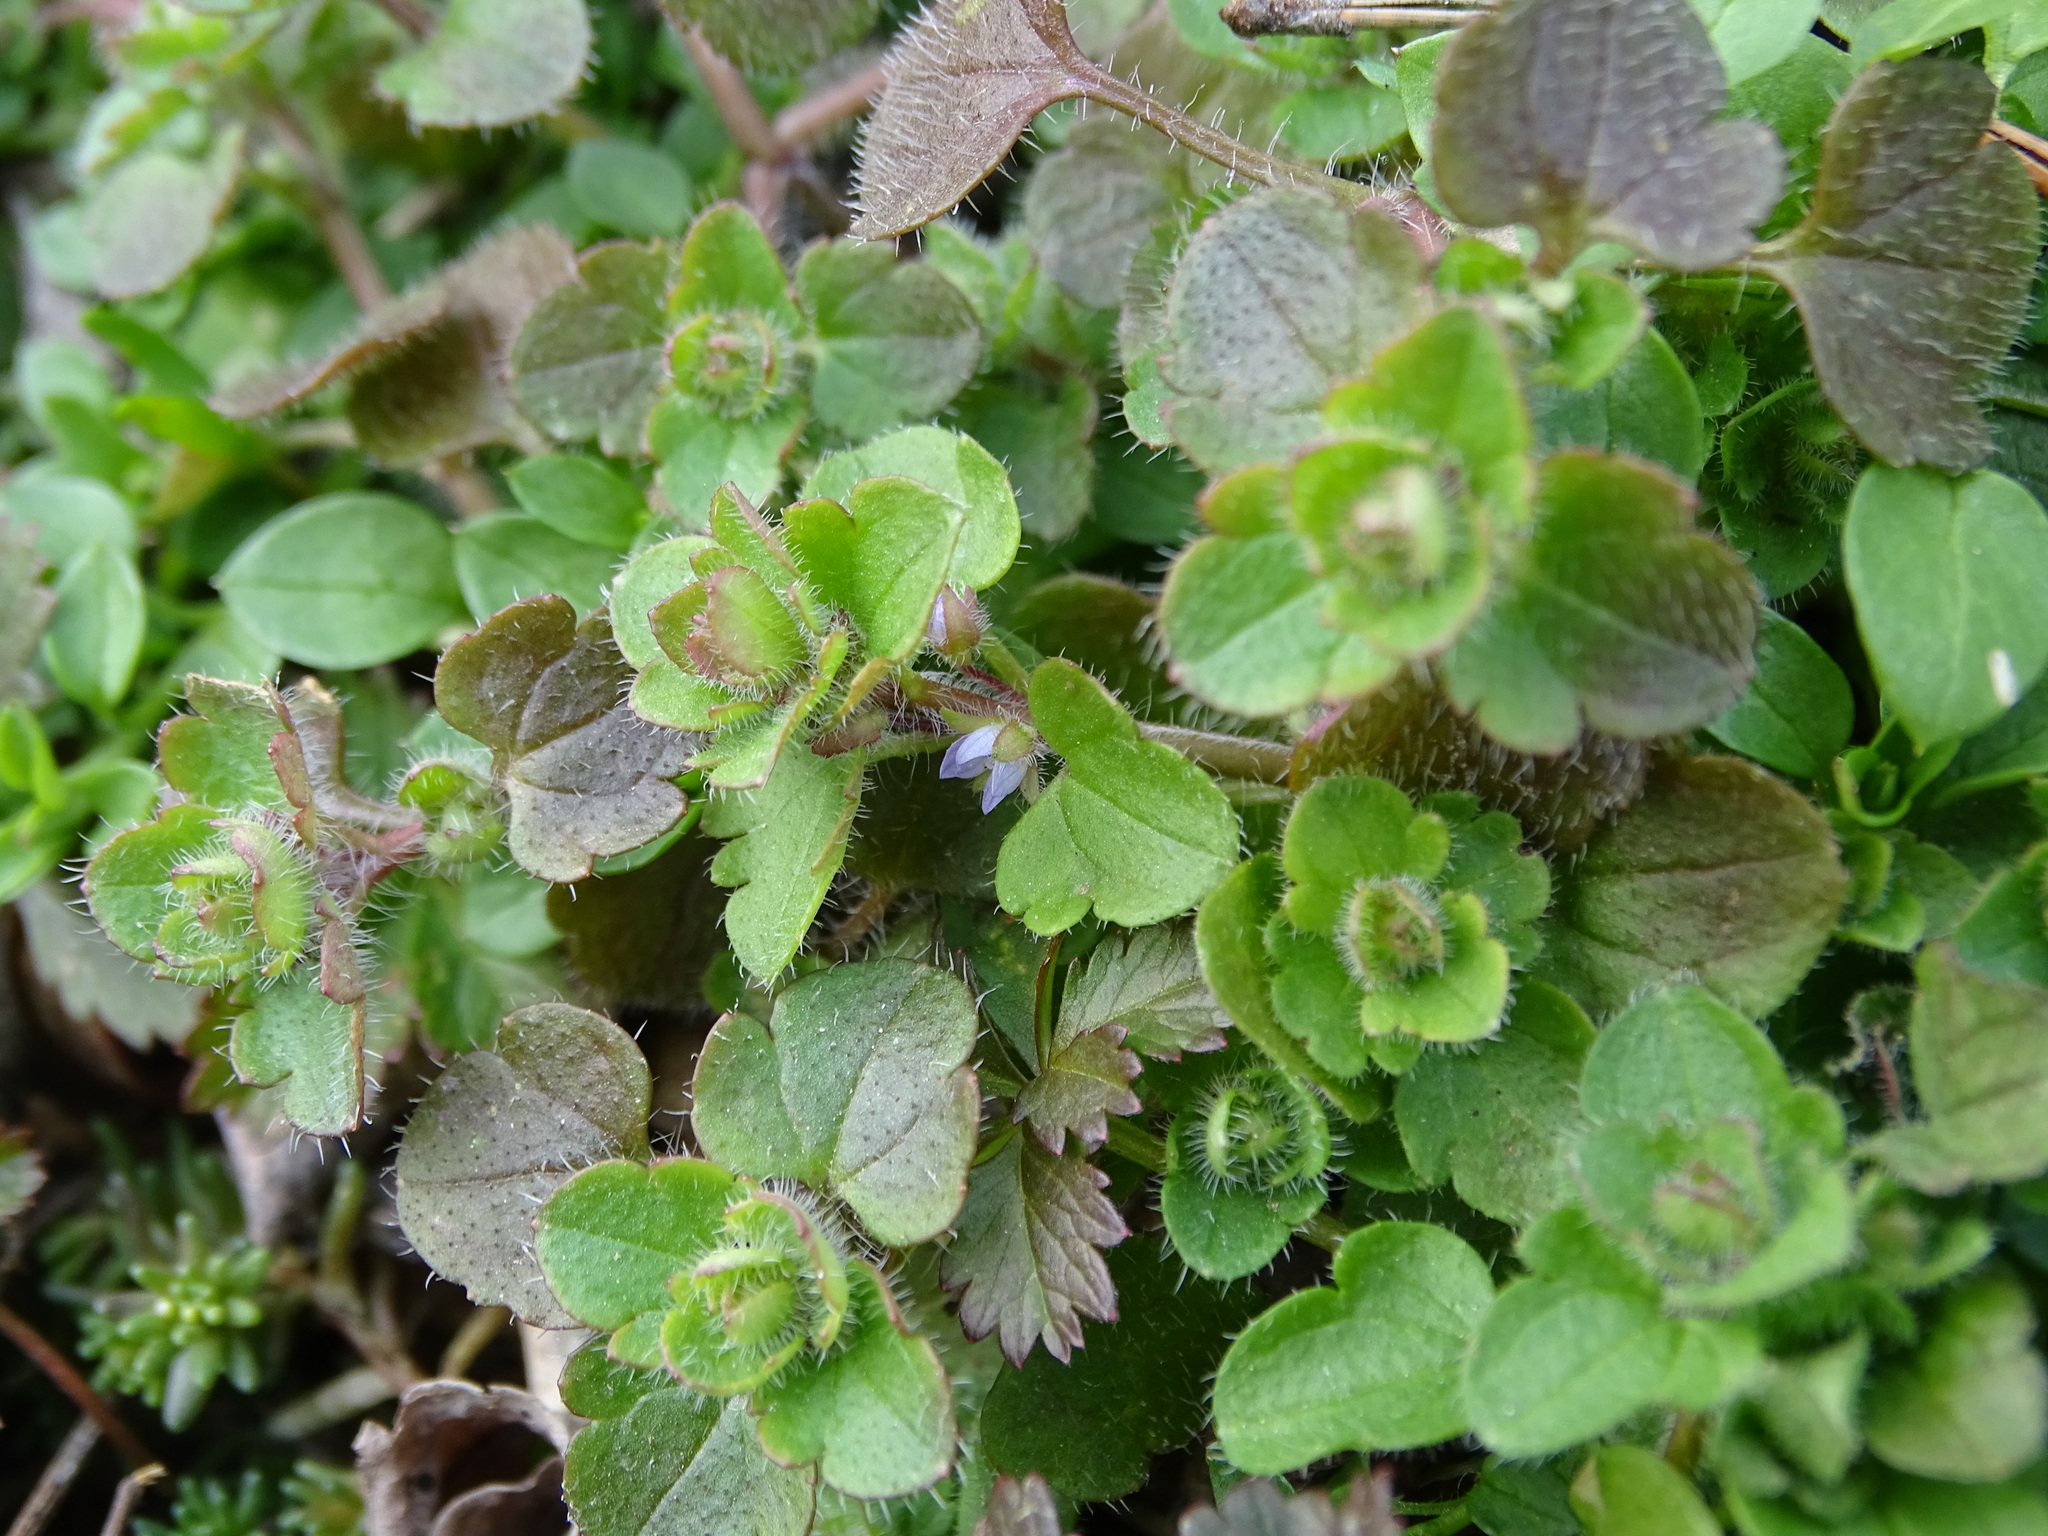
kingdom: Plantae
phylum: Tracheophyta
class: Magnoliopsida
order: Lamiales
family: Plantaginaceae
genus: Veronica
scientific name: Veronica hederifolia
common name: Ivy-leaved speedwell
